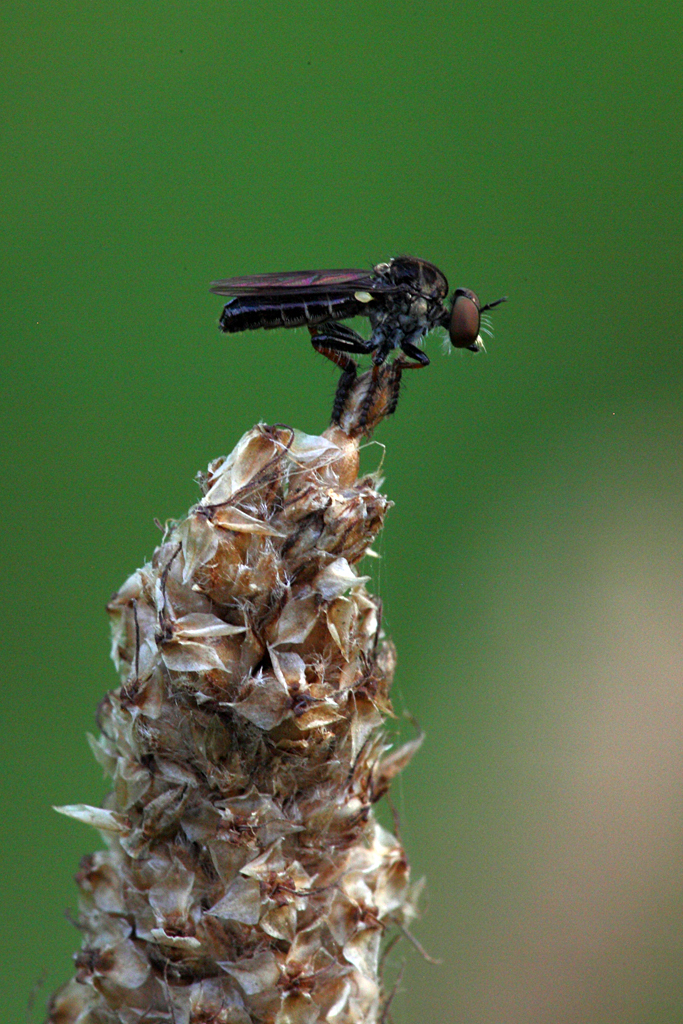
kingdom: Animalia
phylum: Arthropoda
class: Insecta
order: Diptera
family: Asilidae
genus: Hadrokolos
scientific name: Hadrokolos texanus
